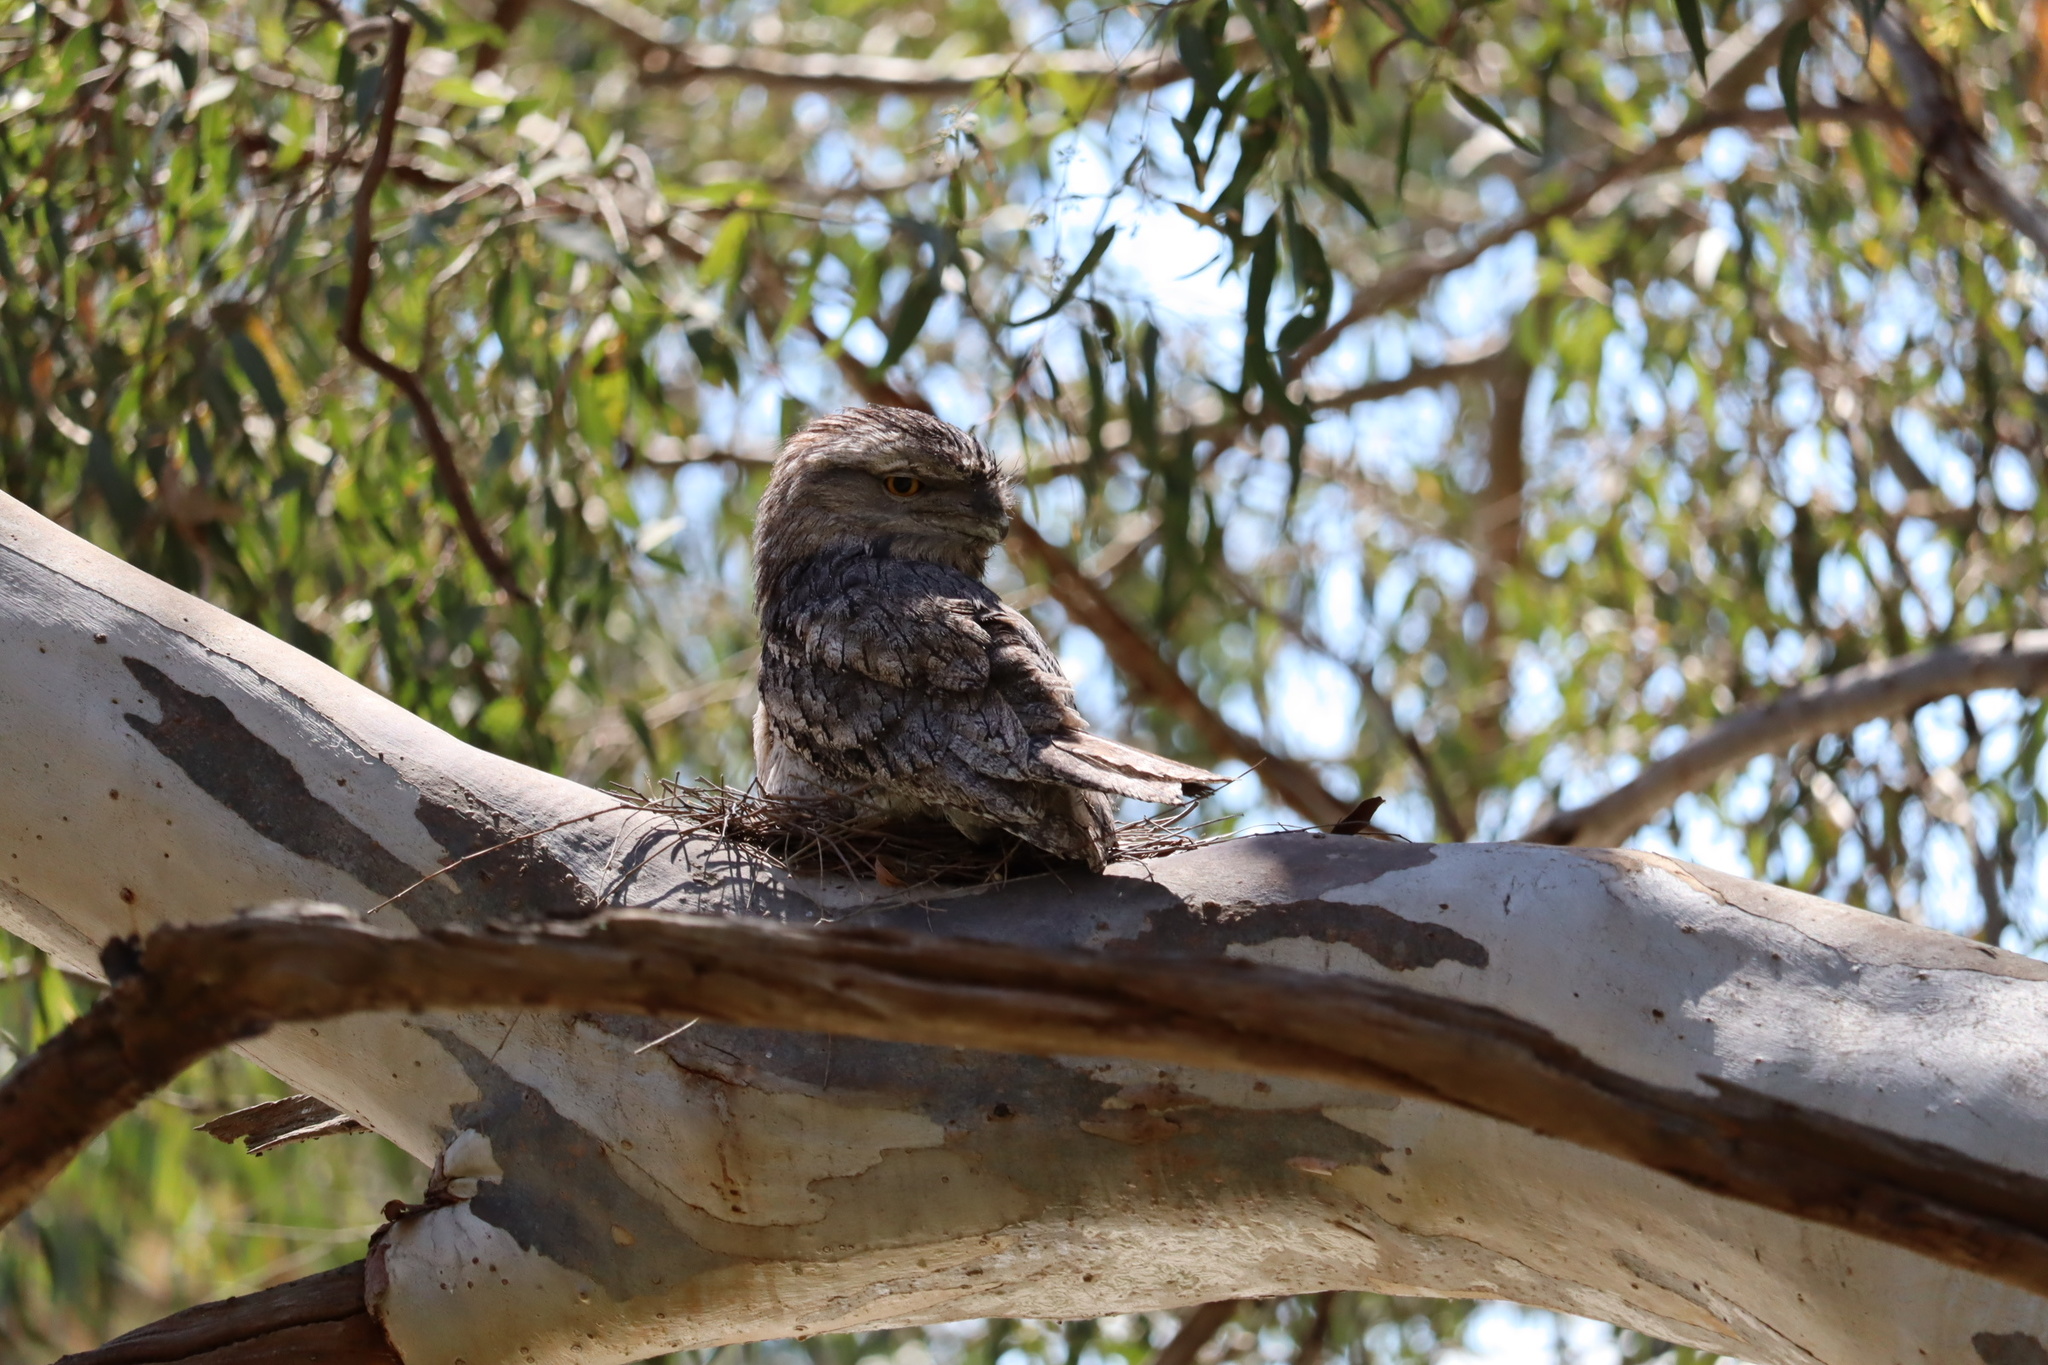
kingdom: Animalia
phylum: Chordata
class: Aves
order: Caprimulgiformes
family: Podargidae
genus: Podargus
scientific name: Podargus strigoides
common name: Tawny frogmouth
